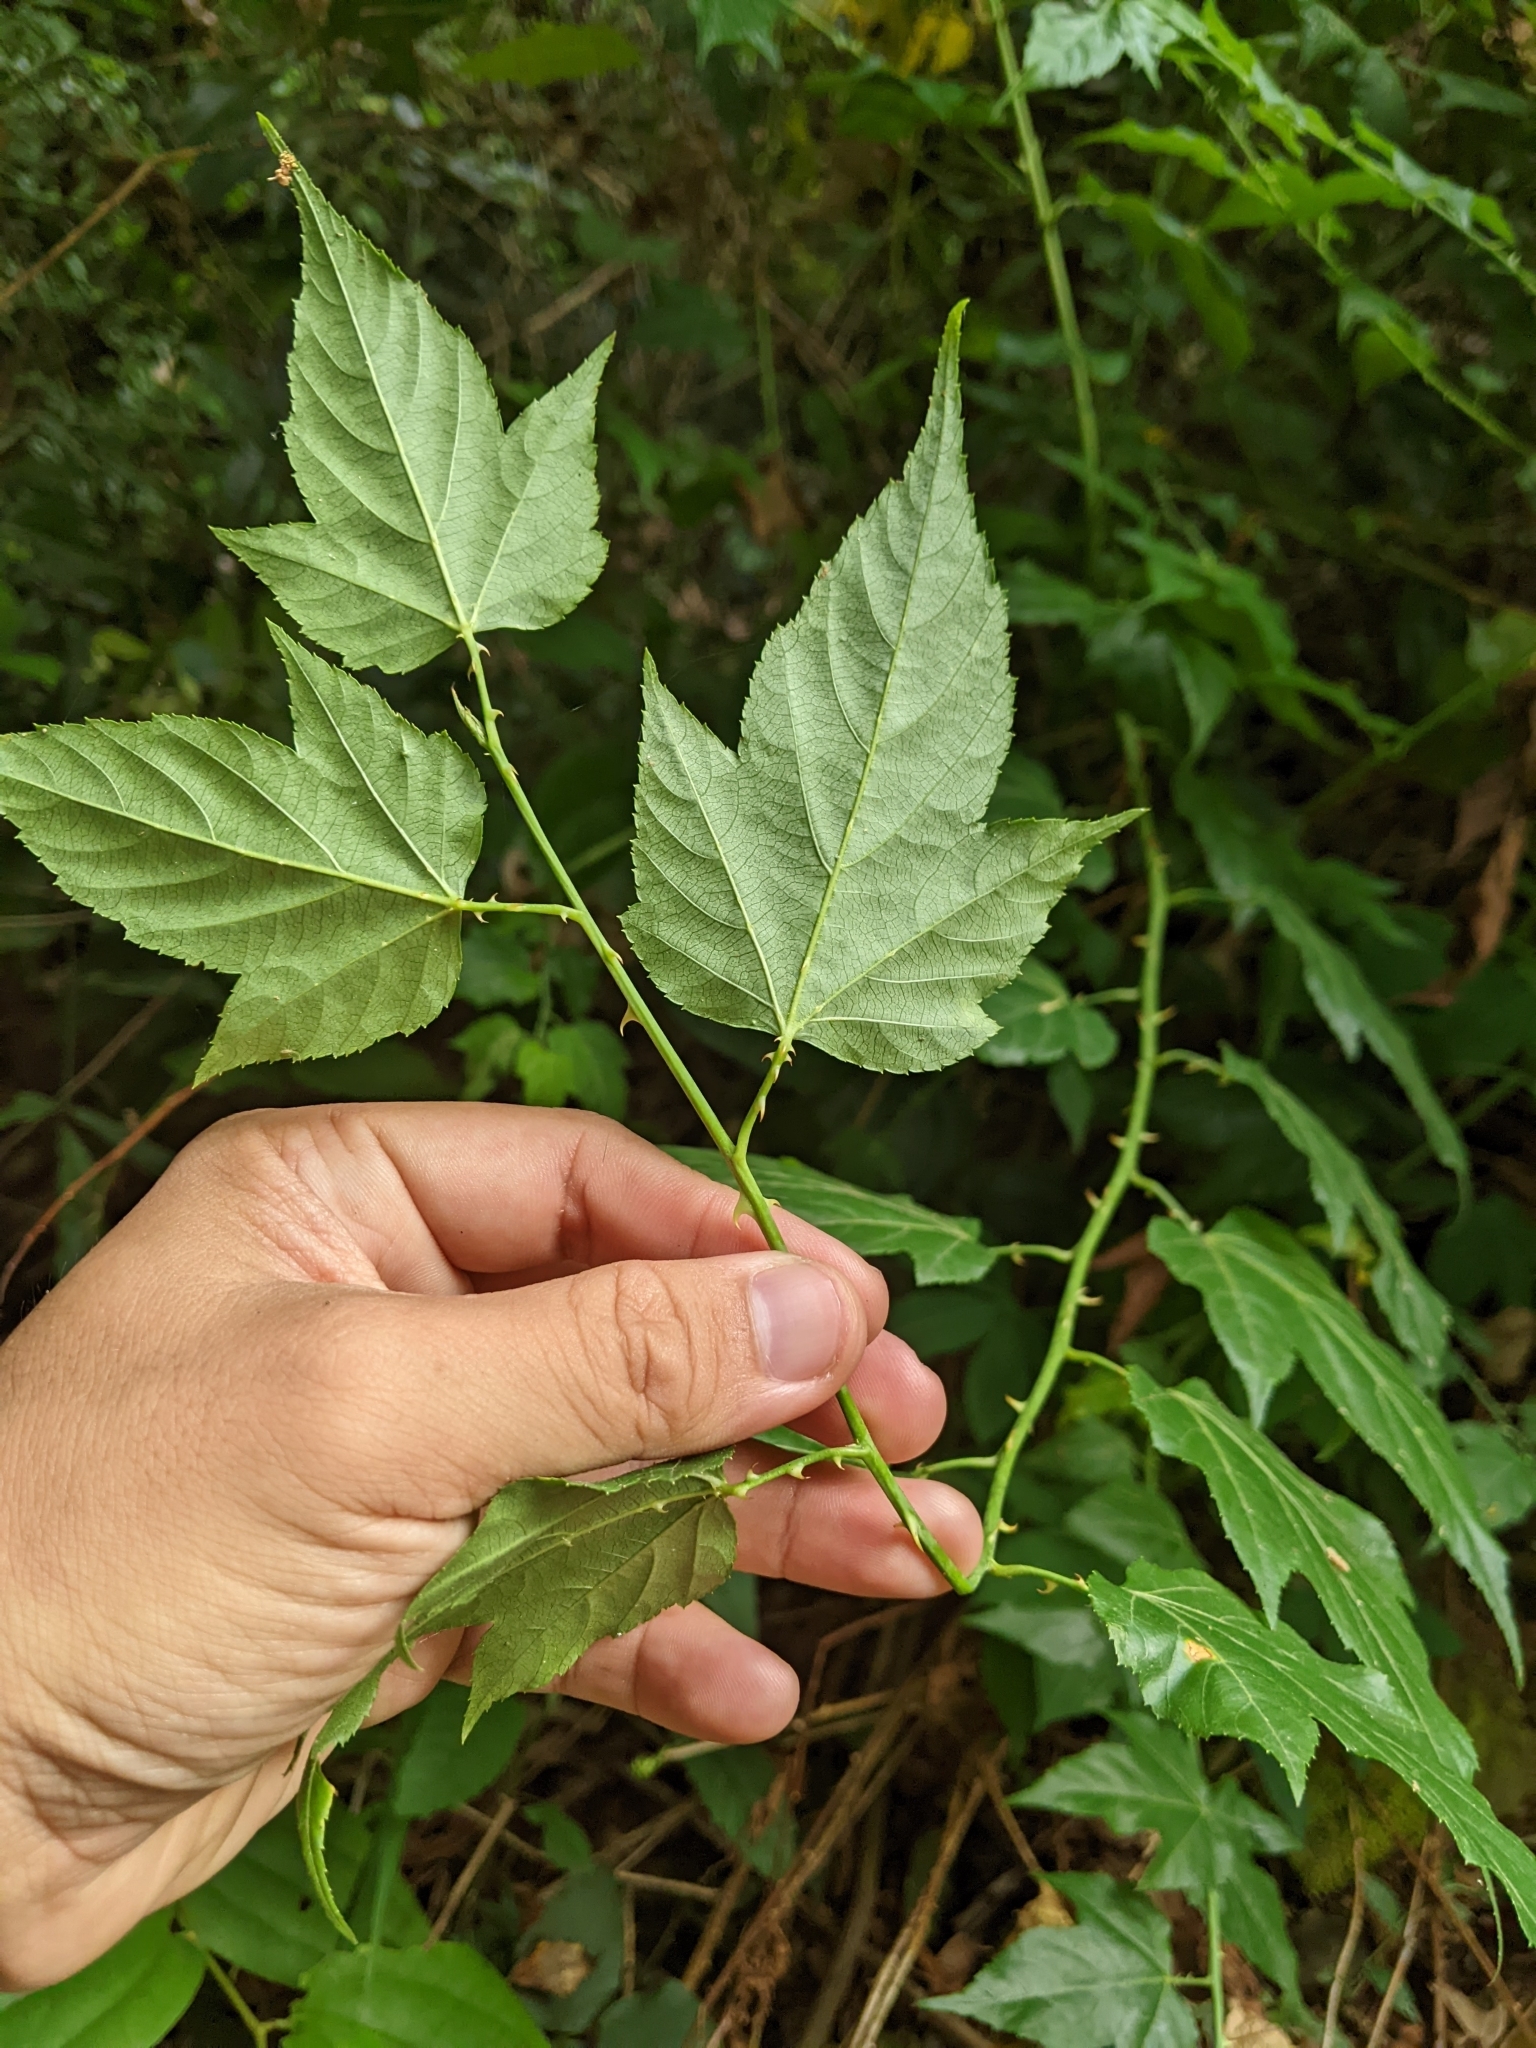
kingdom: Plantae
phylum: Tracheophyta
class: Magnoliopsida
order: Rosales
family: Rosaceae
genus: Rubus
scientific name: Rubus corchorifolius
